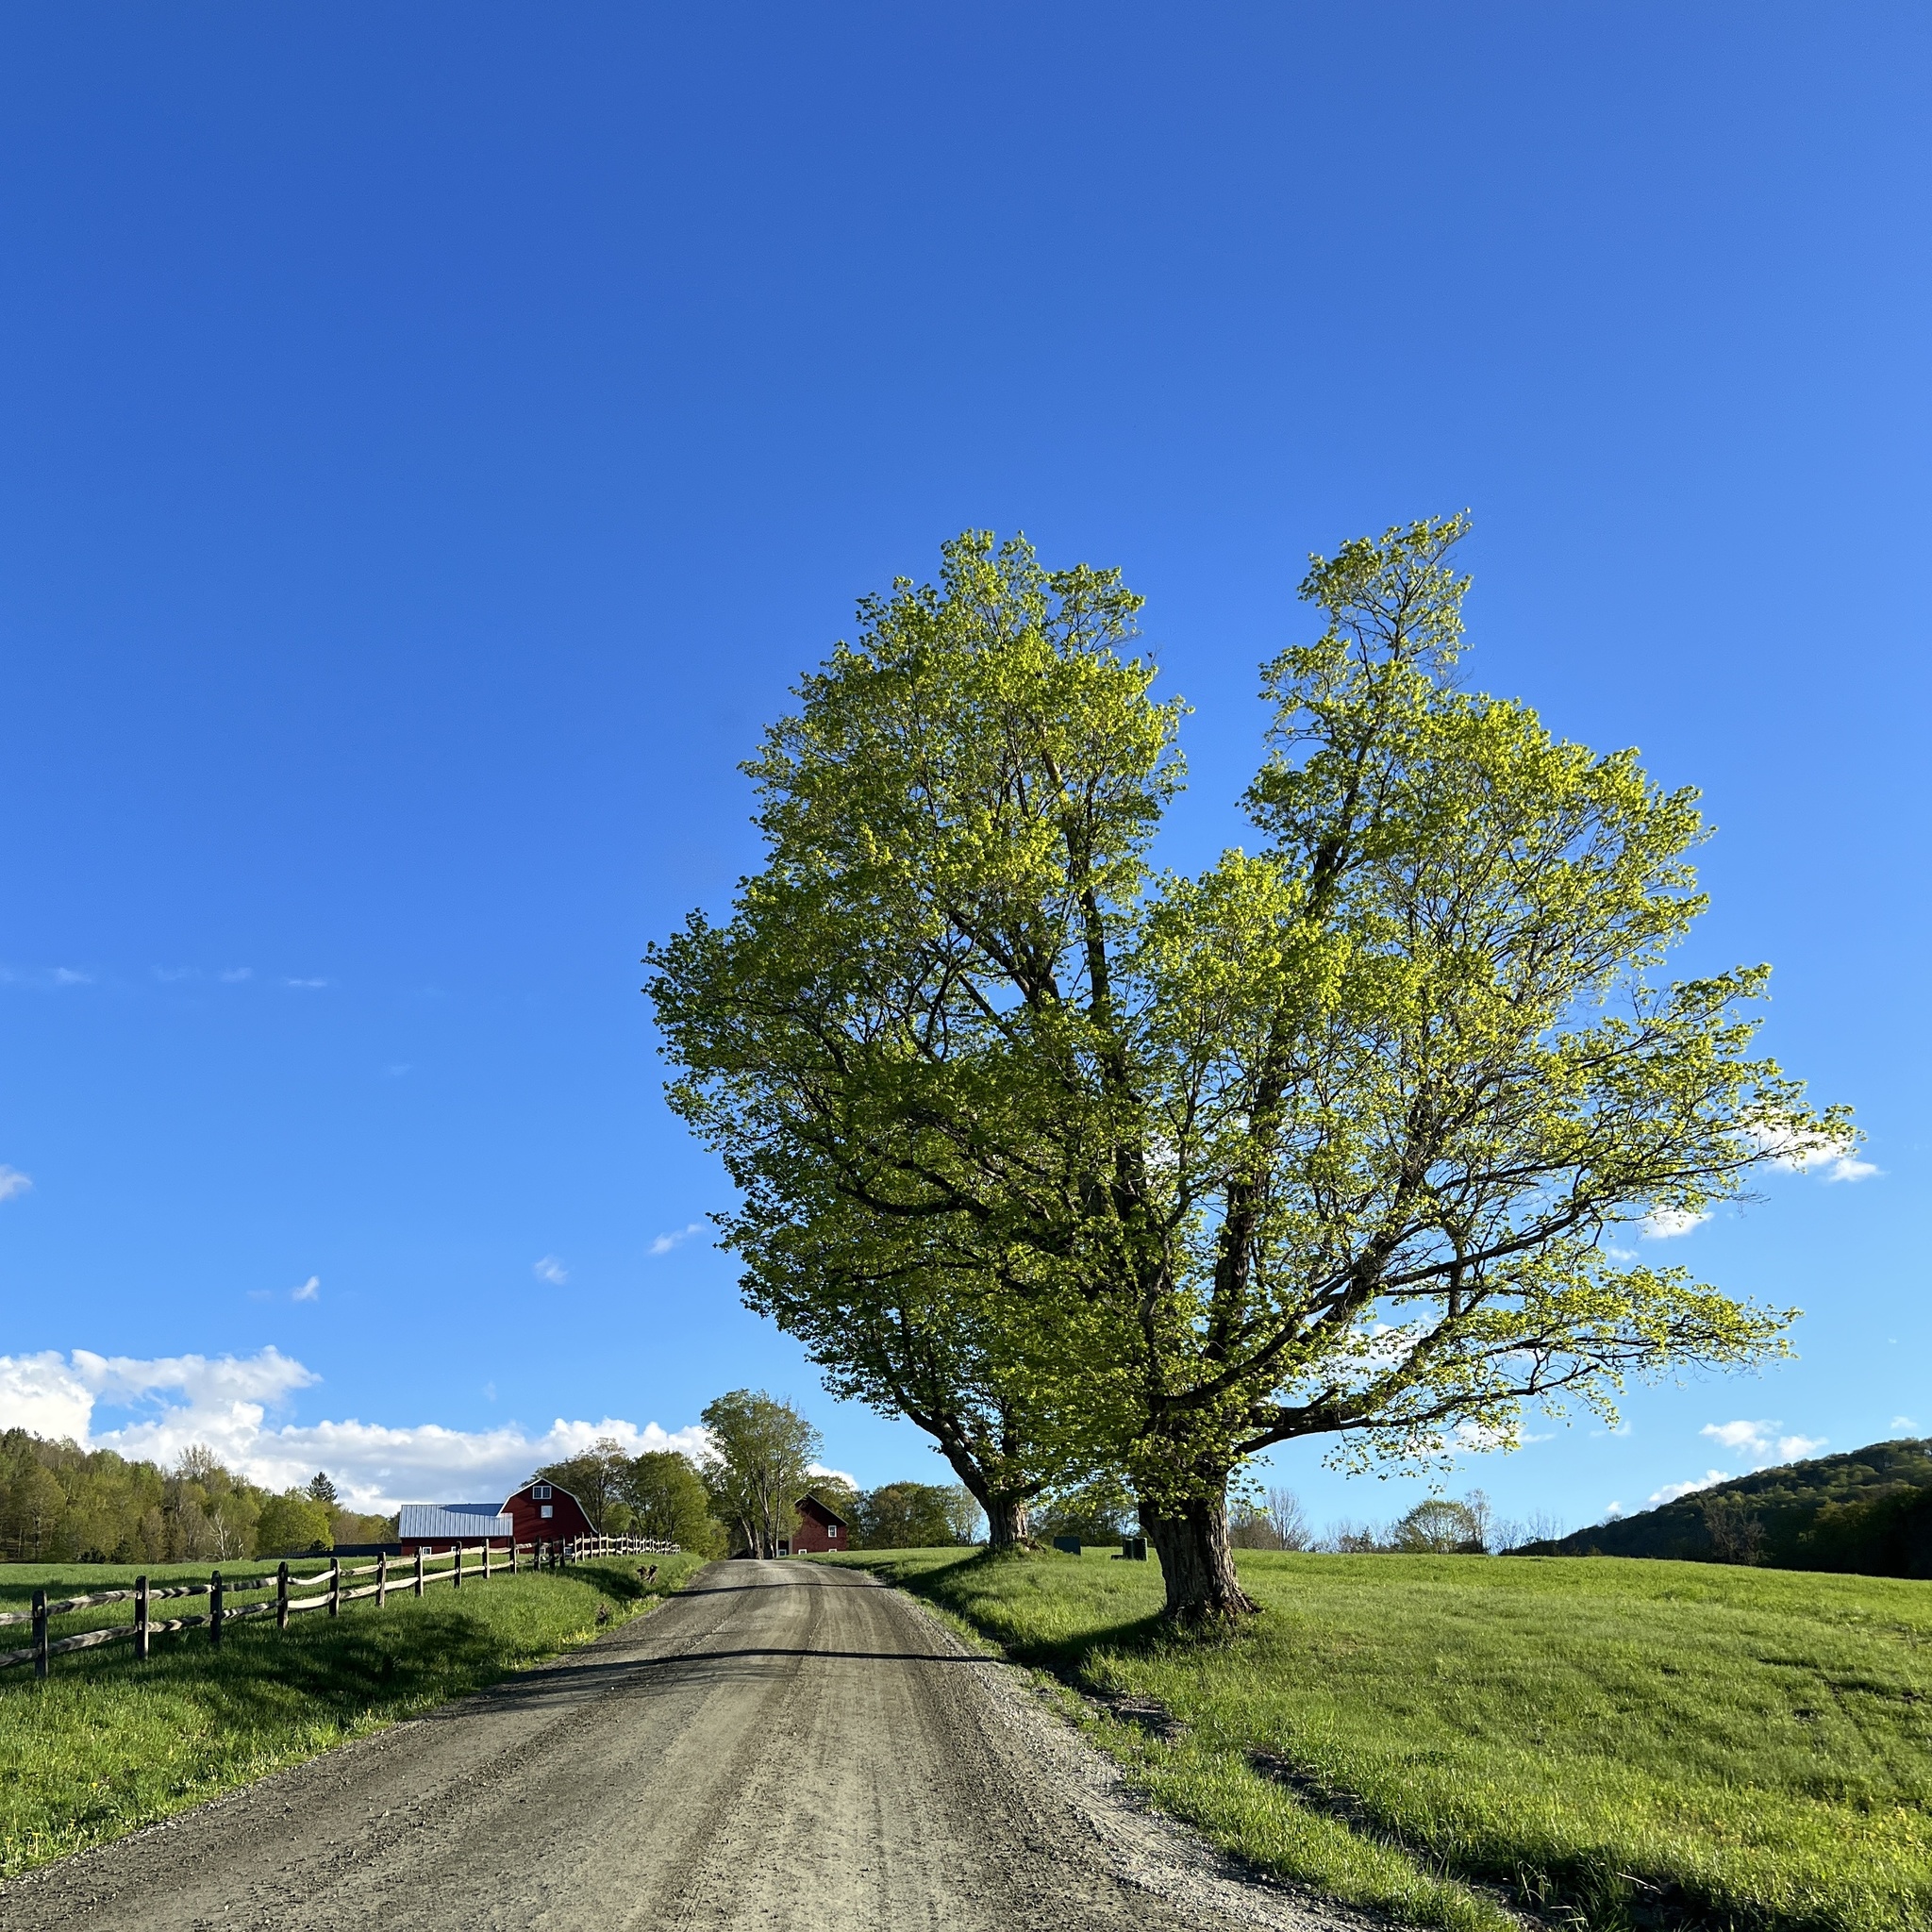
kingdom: Plantae
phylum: Tracheophyta
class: Magnoliopsida
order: Sapindales
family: Sapindaceae
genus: Acer
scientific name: Acer saccharum
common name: Sugar maple
